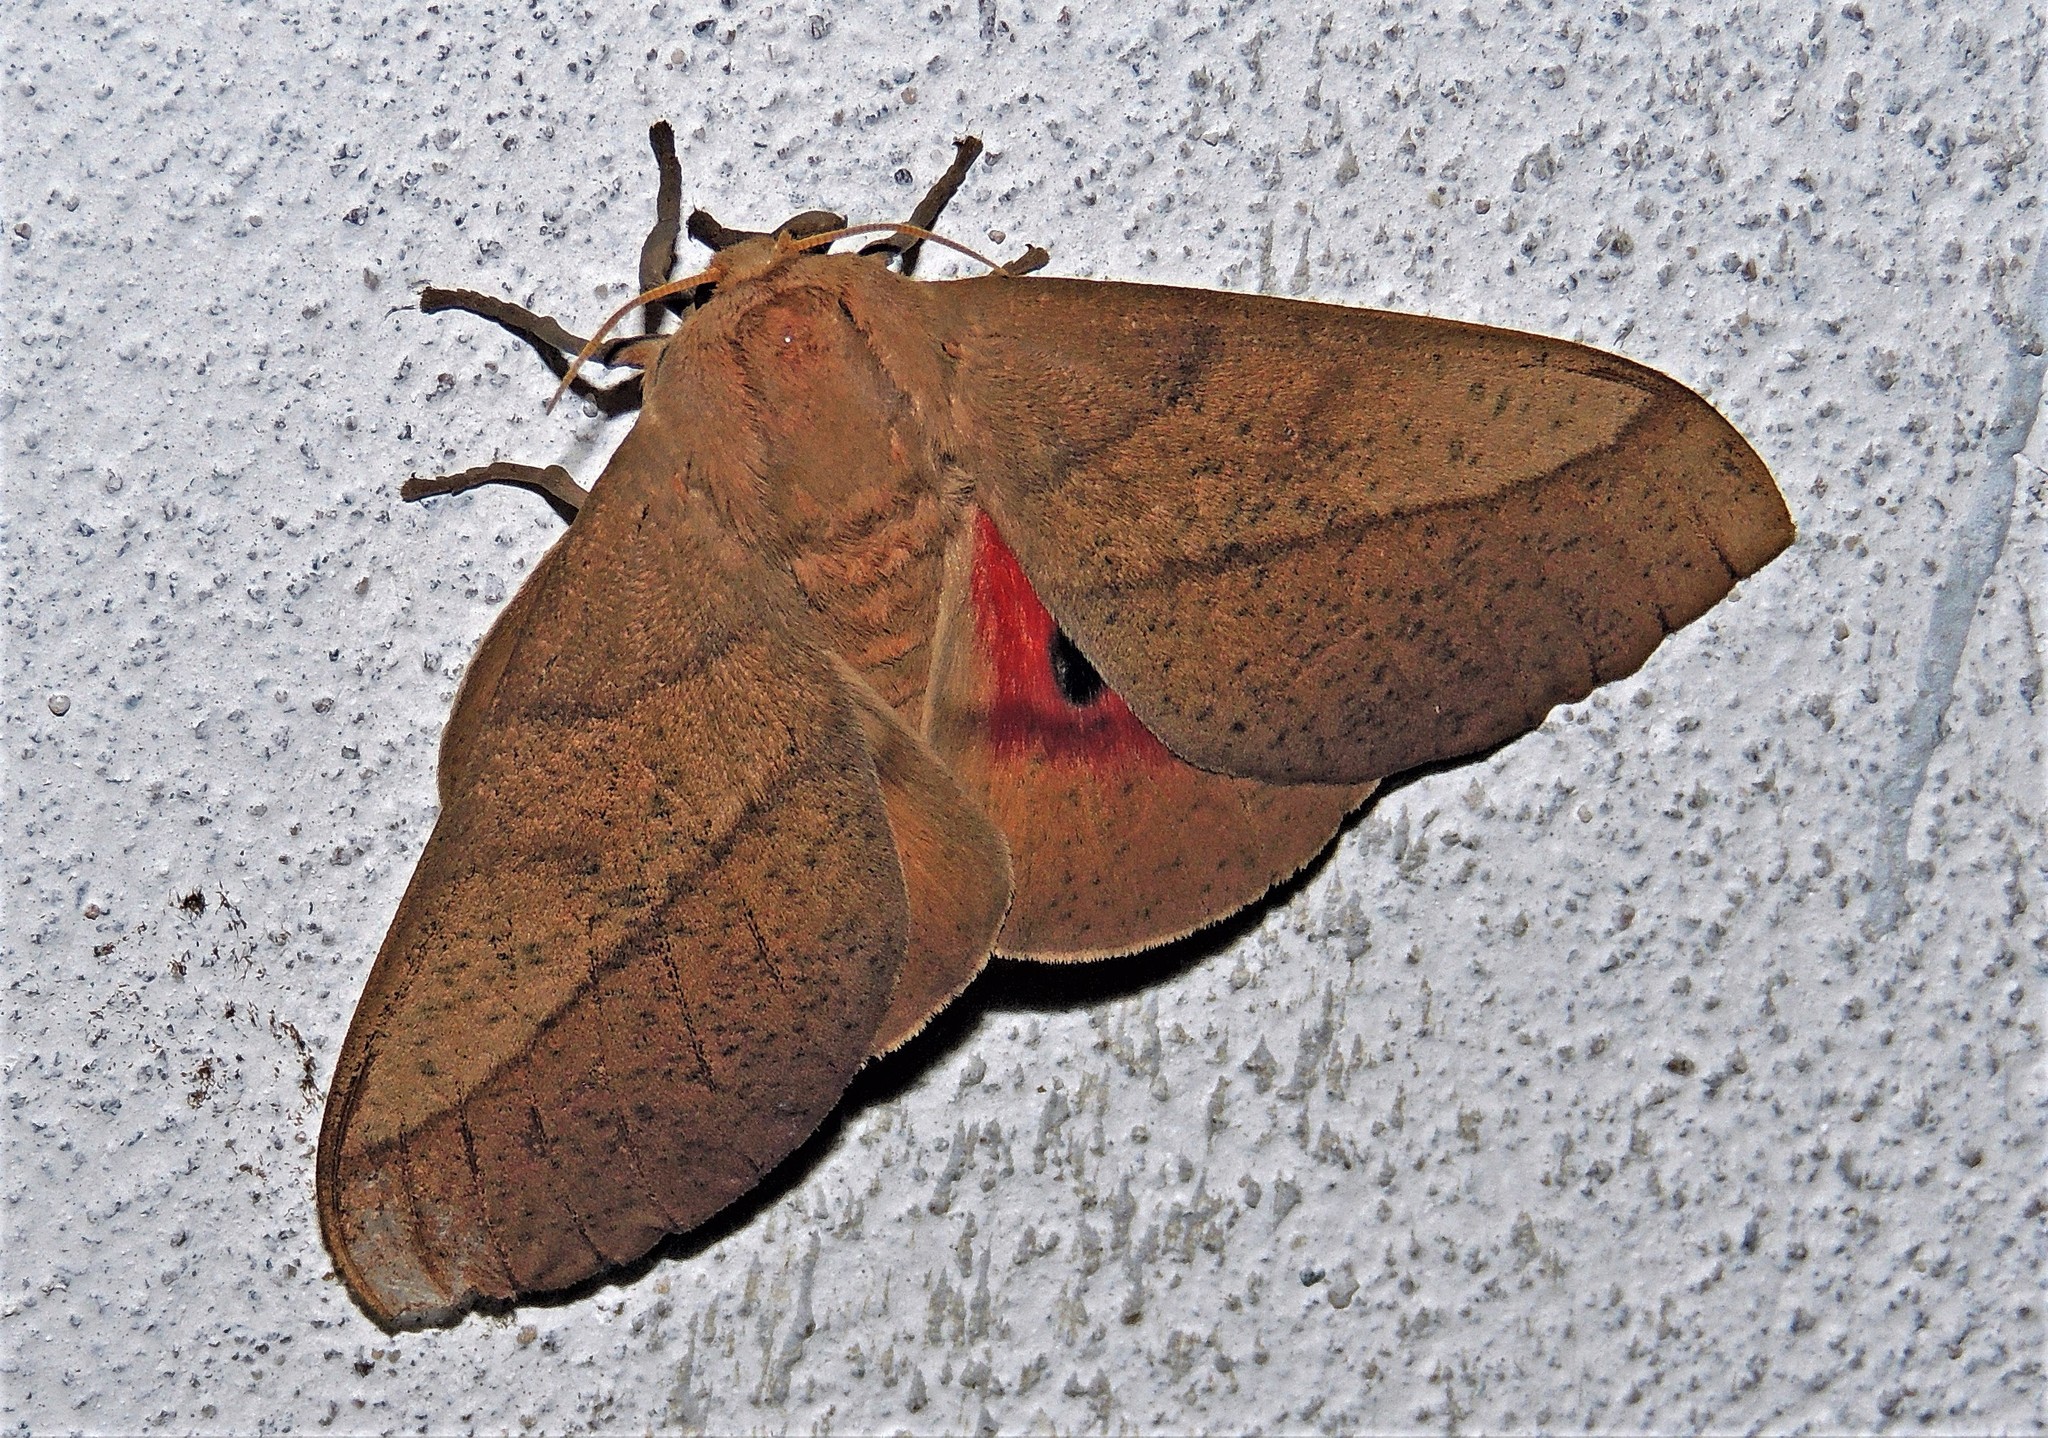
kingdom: Animalia
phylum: Arthropoda
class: Insecta
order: Lepidoptera
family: Saturniidae
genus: Syssphinx
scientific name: Syssphinx molina
